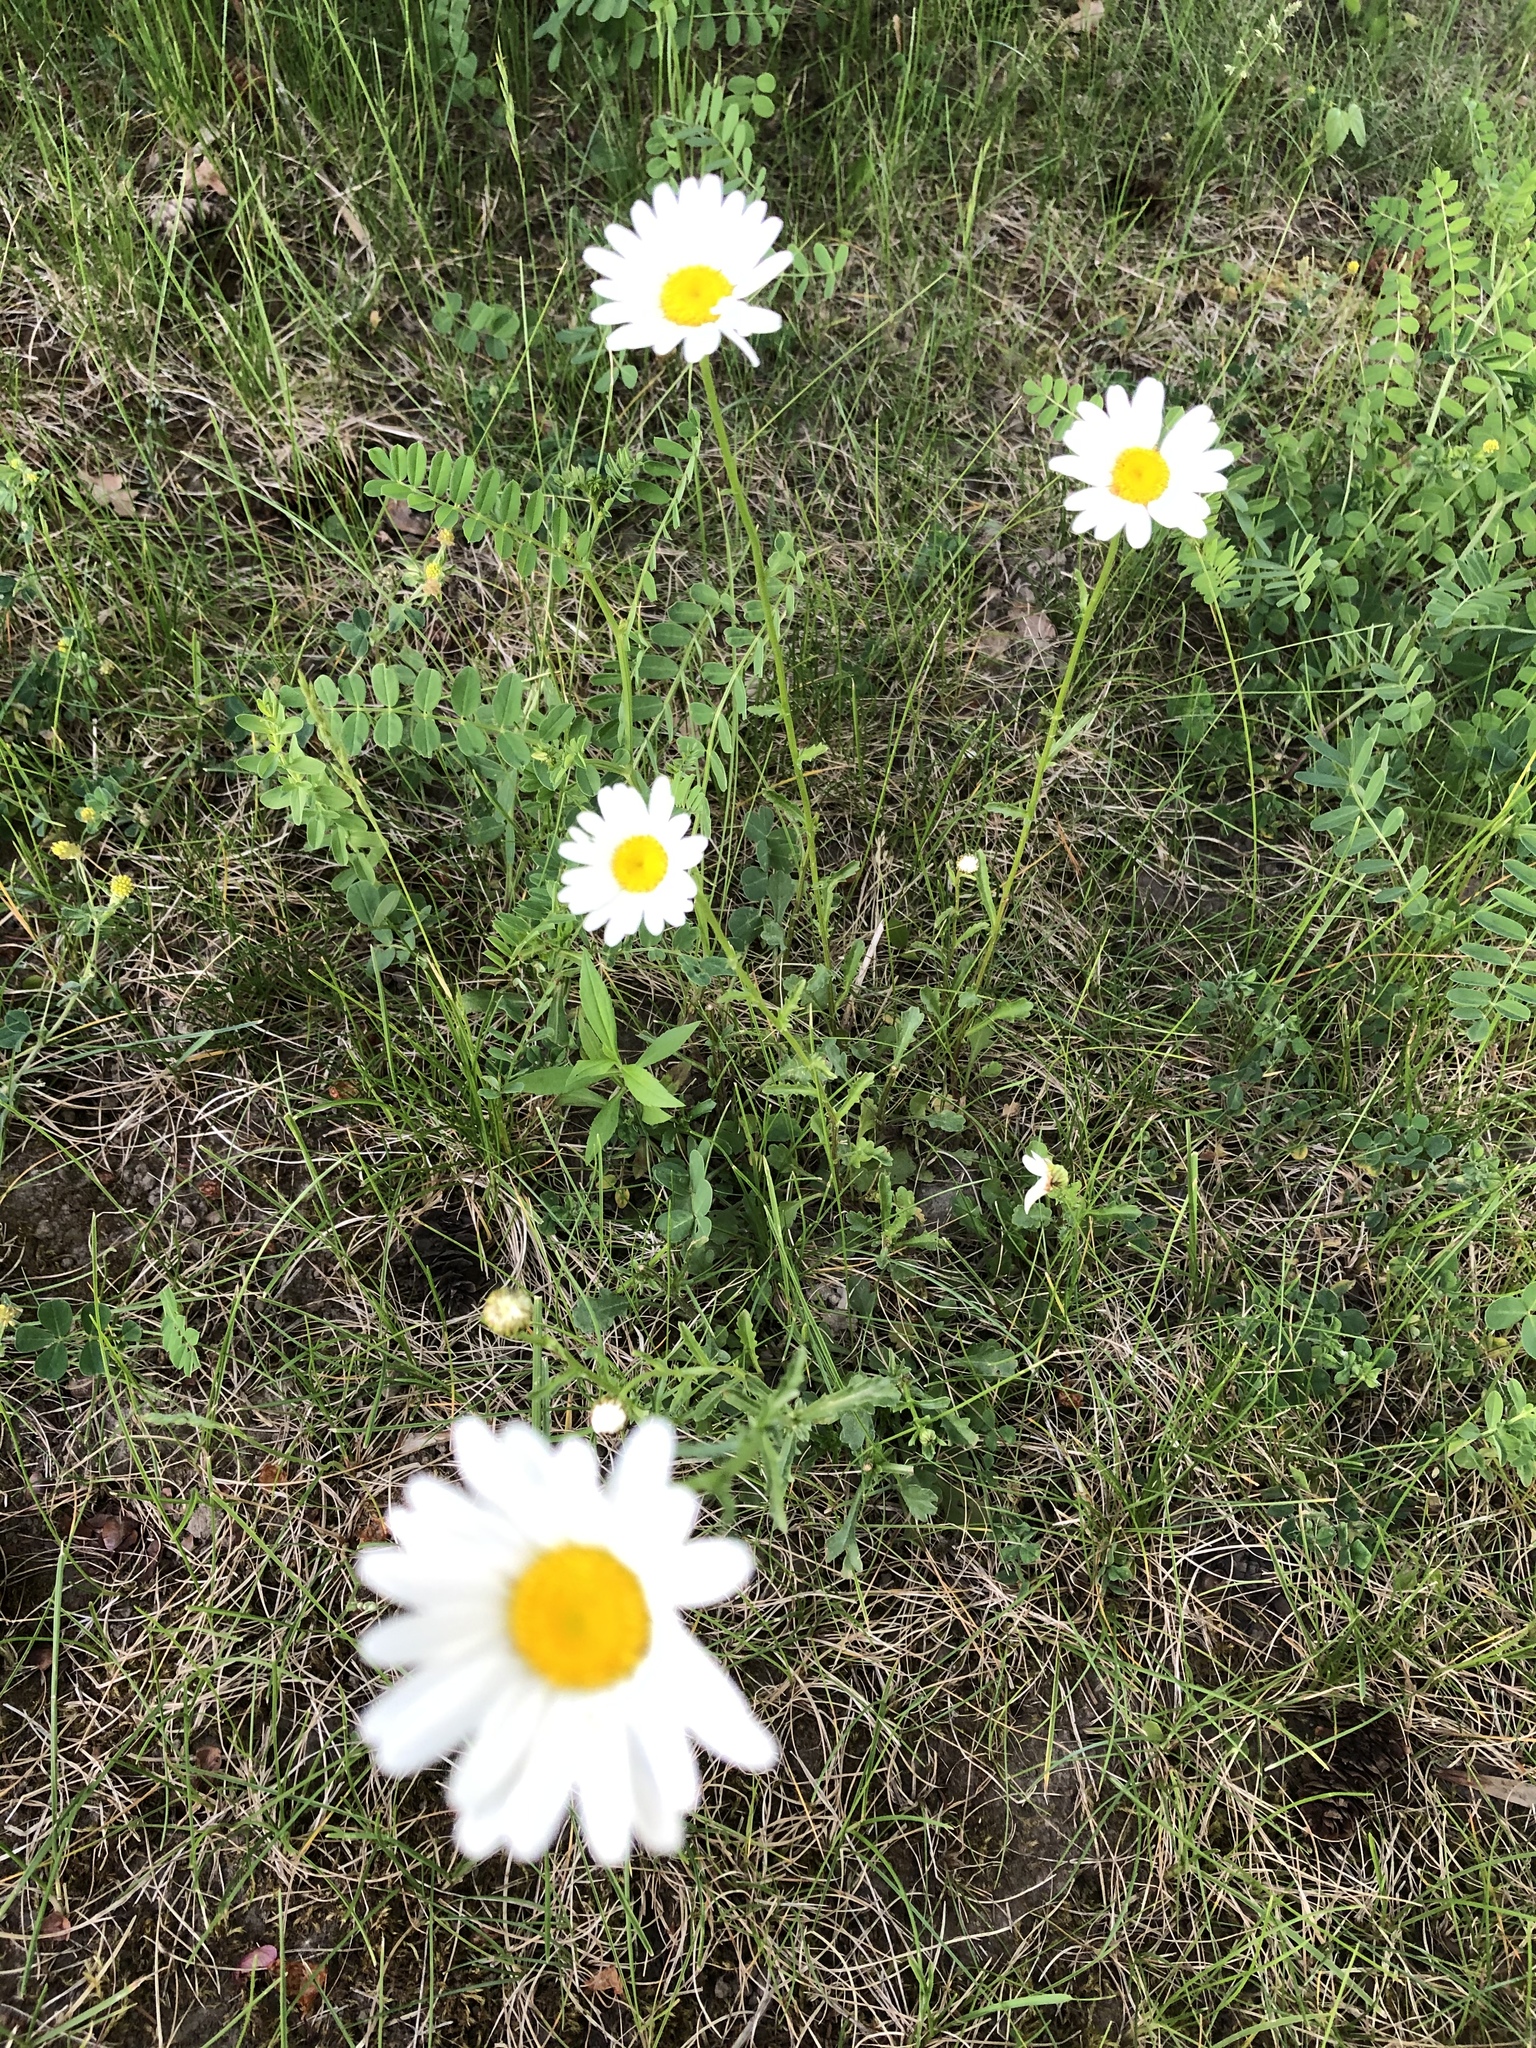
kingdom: Plantae
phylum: Tracheophyta
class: Magnoliopsida
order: Asterales
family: Asteraceae
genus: Leucanthemum
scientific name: Leucanthemum vulgare
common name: Oxeye daisy
